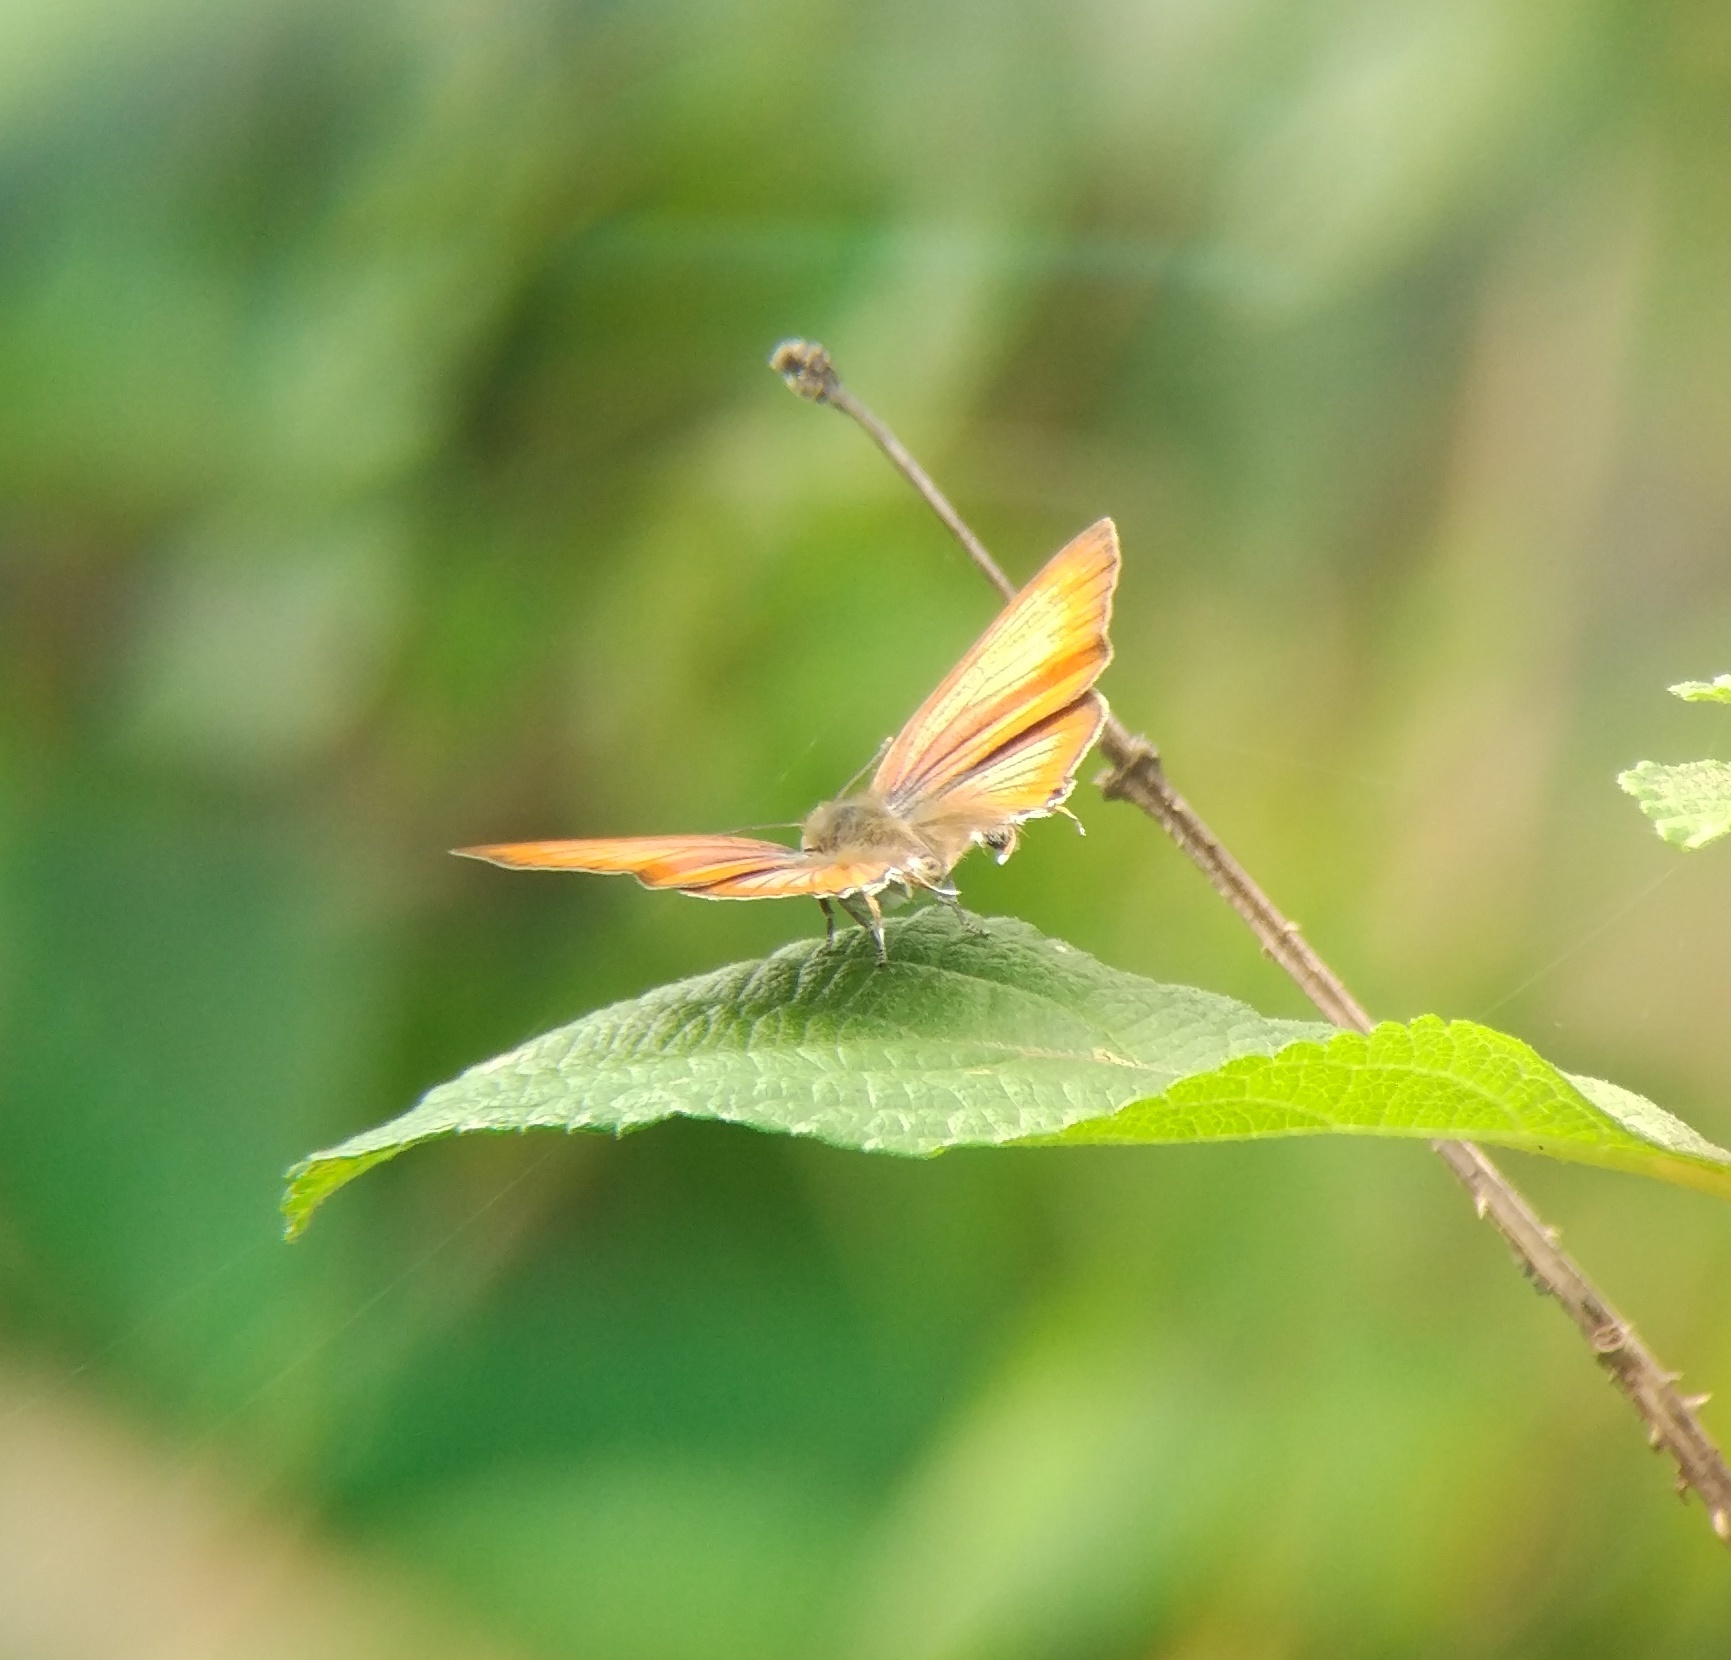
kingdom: Animalia
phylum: Arthropoda
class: Insecta
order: Lepidoptera
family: Lycaenidae
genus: Rapala
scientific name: Rapala iarbus
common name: Common red flash
